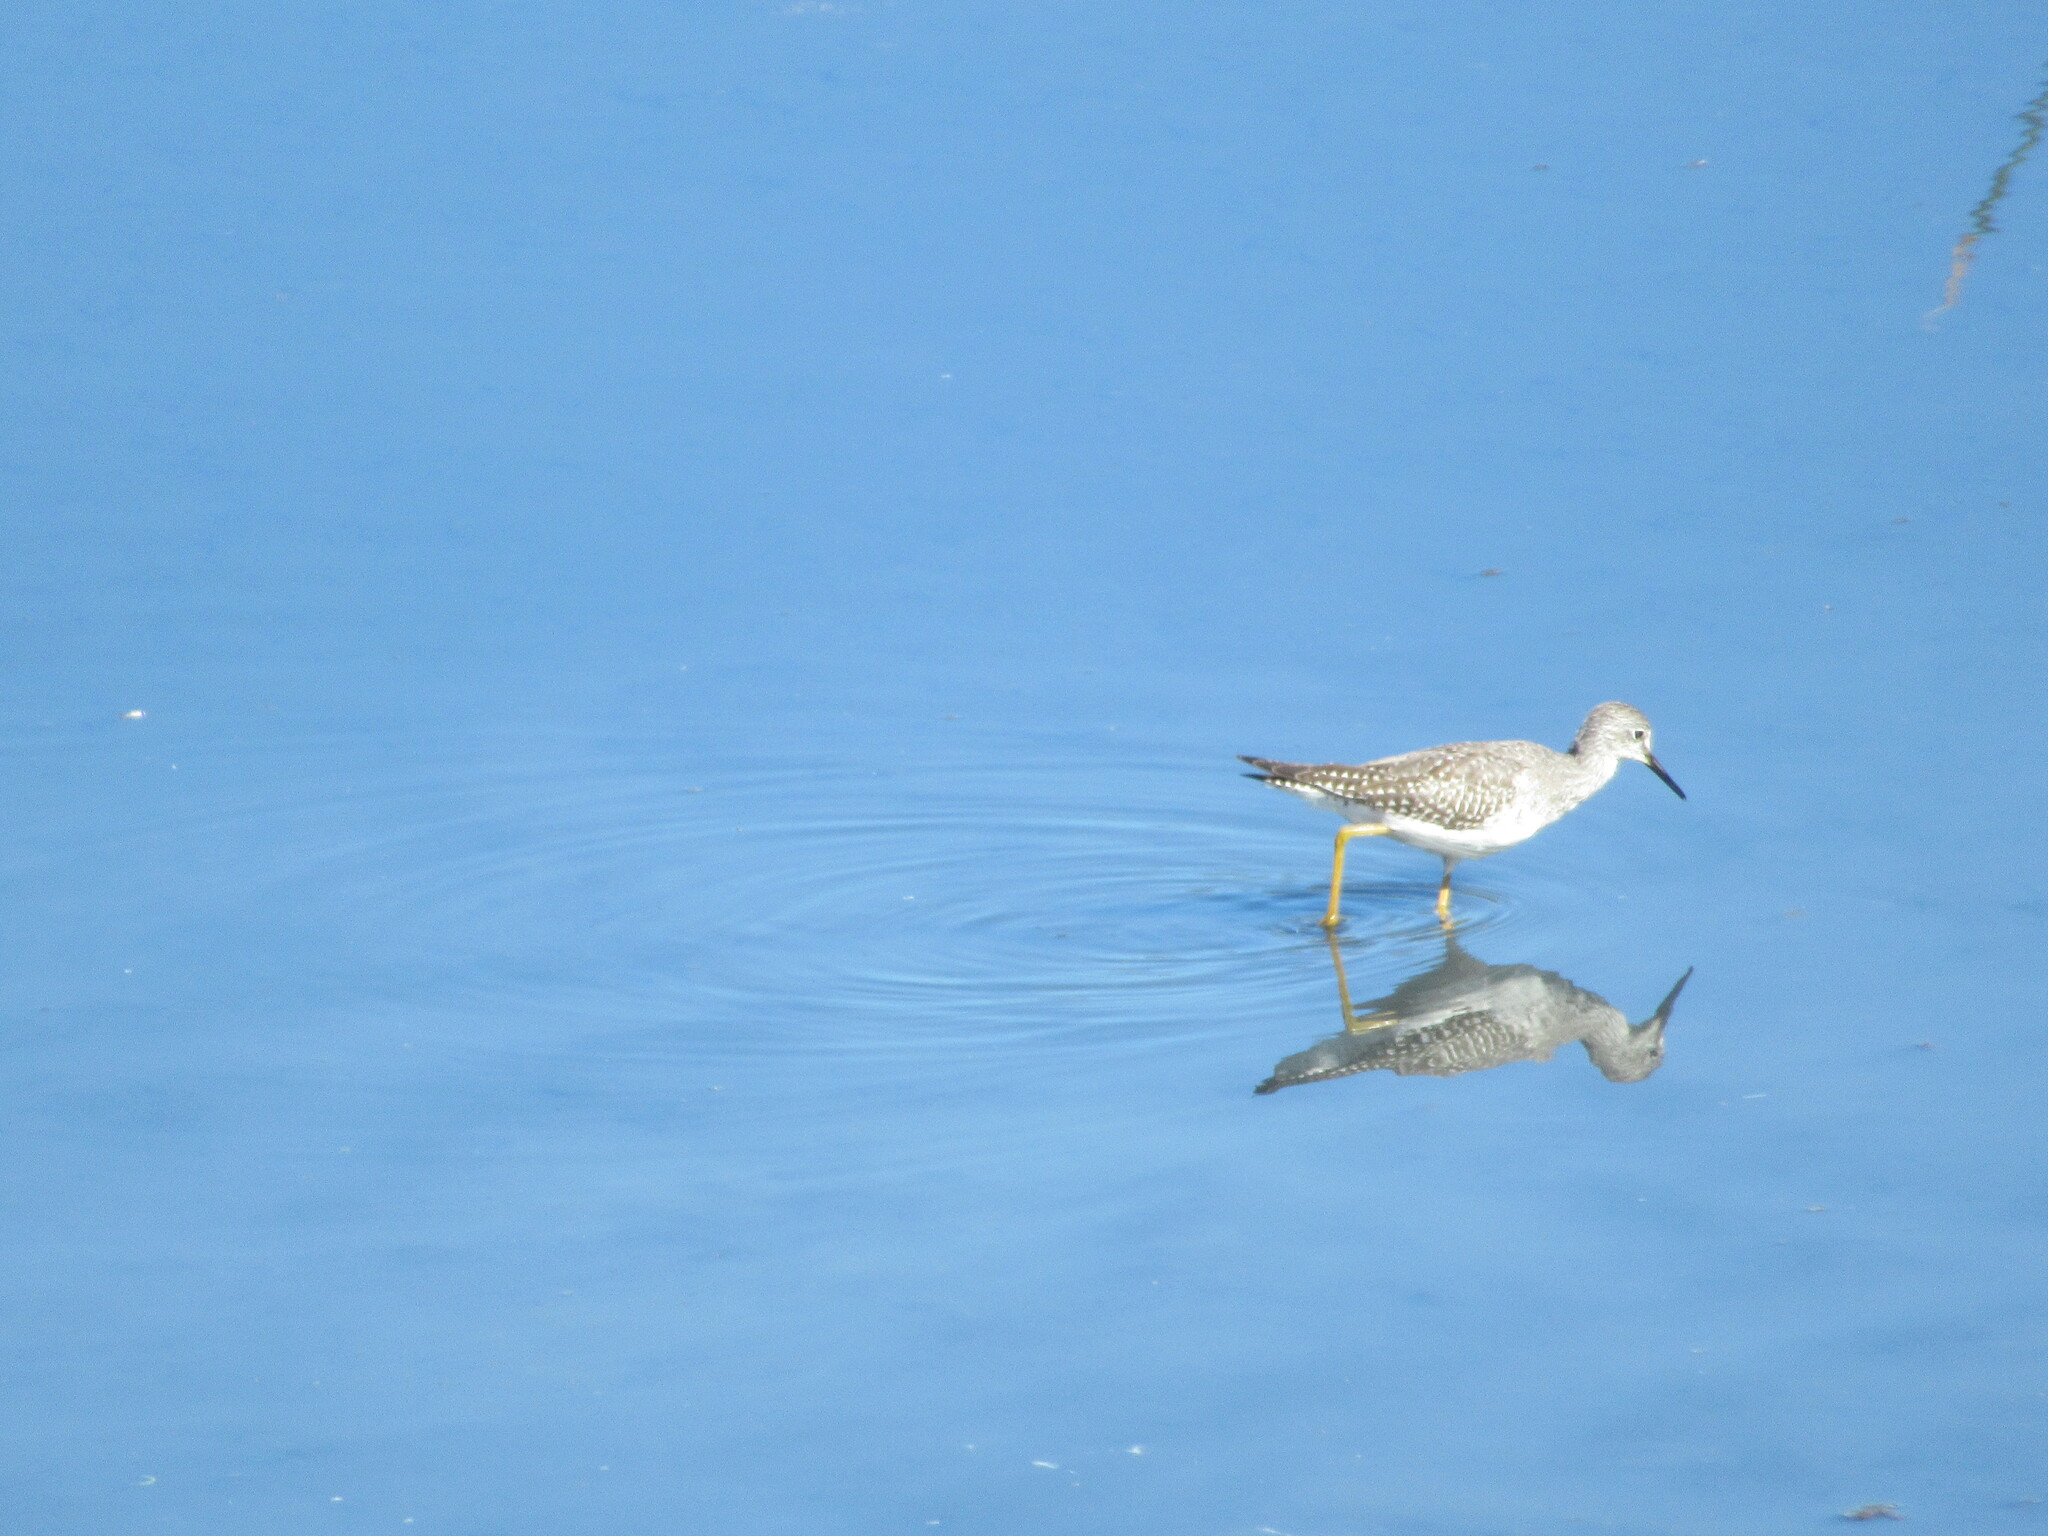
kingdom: Animalia
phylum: Chordata
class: Aves
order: Charadriiformes
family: Scolopacidae
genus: Tringa
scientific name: Tringa flavipes
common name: Lesser yellowlegs
